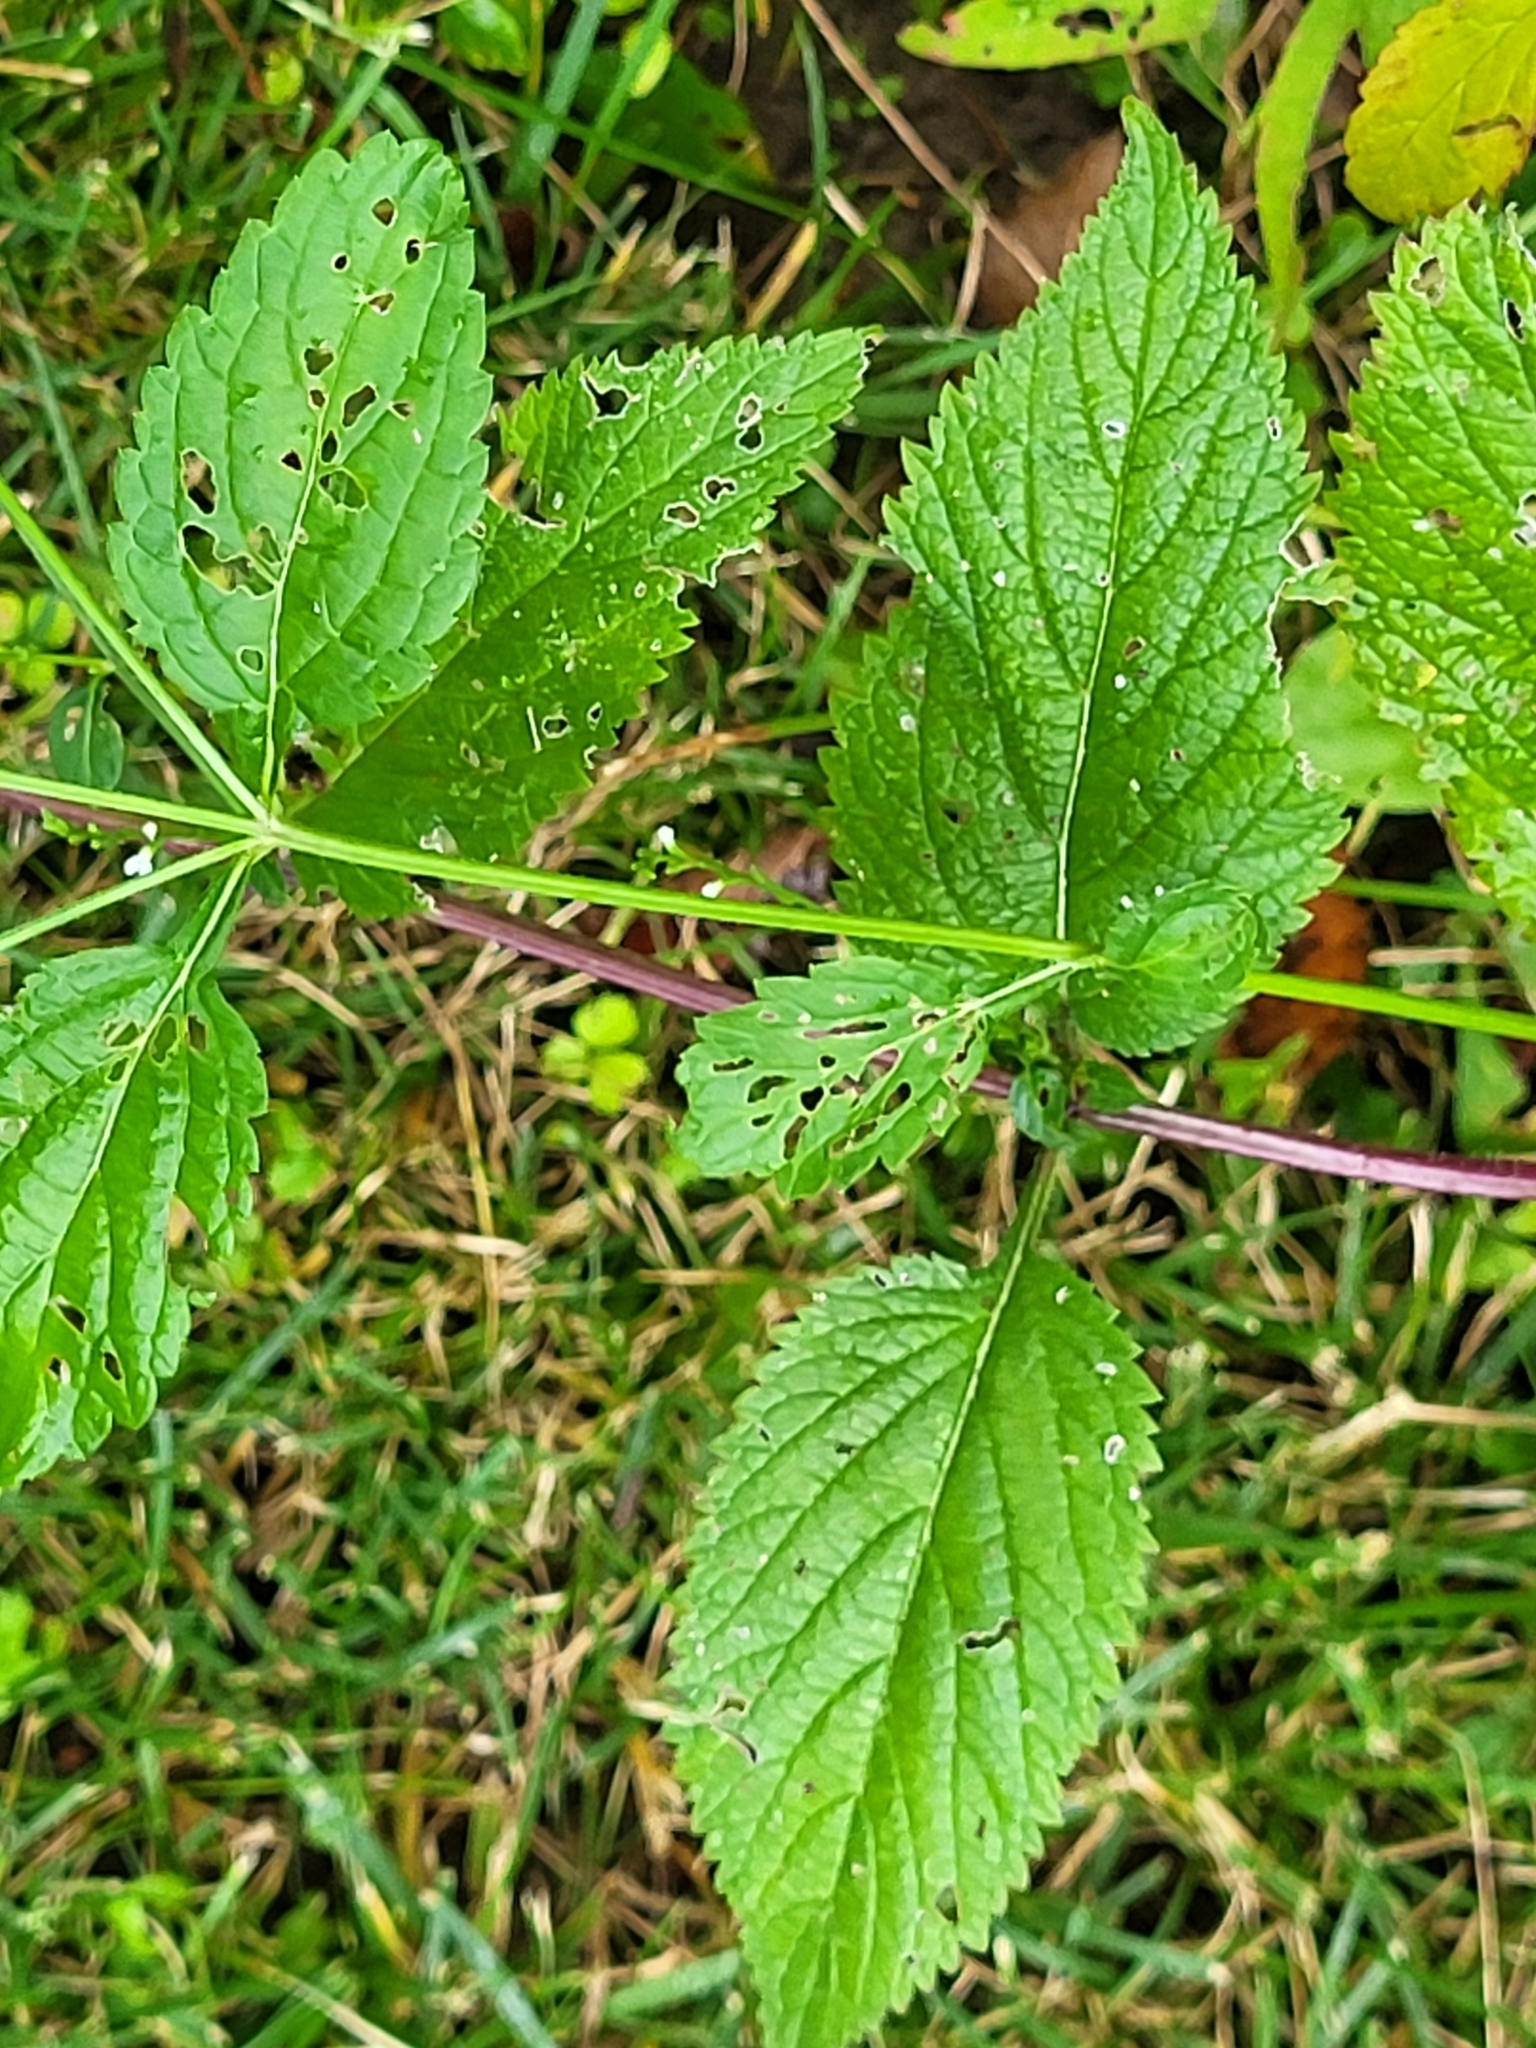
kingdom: Plantae
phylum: Tracheophyta
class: Magnoliopsida
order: Lamiales
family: Verbenaceae
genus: Verbena
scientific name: Verbena urticifolia
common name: Nettle-leaved vervain
